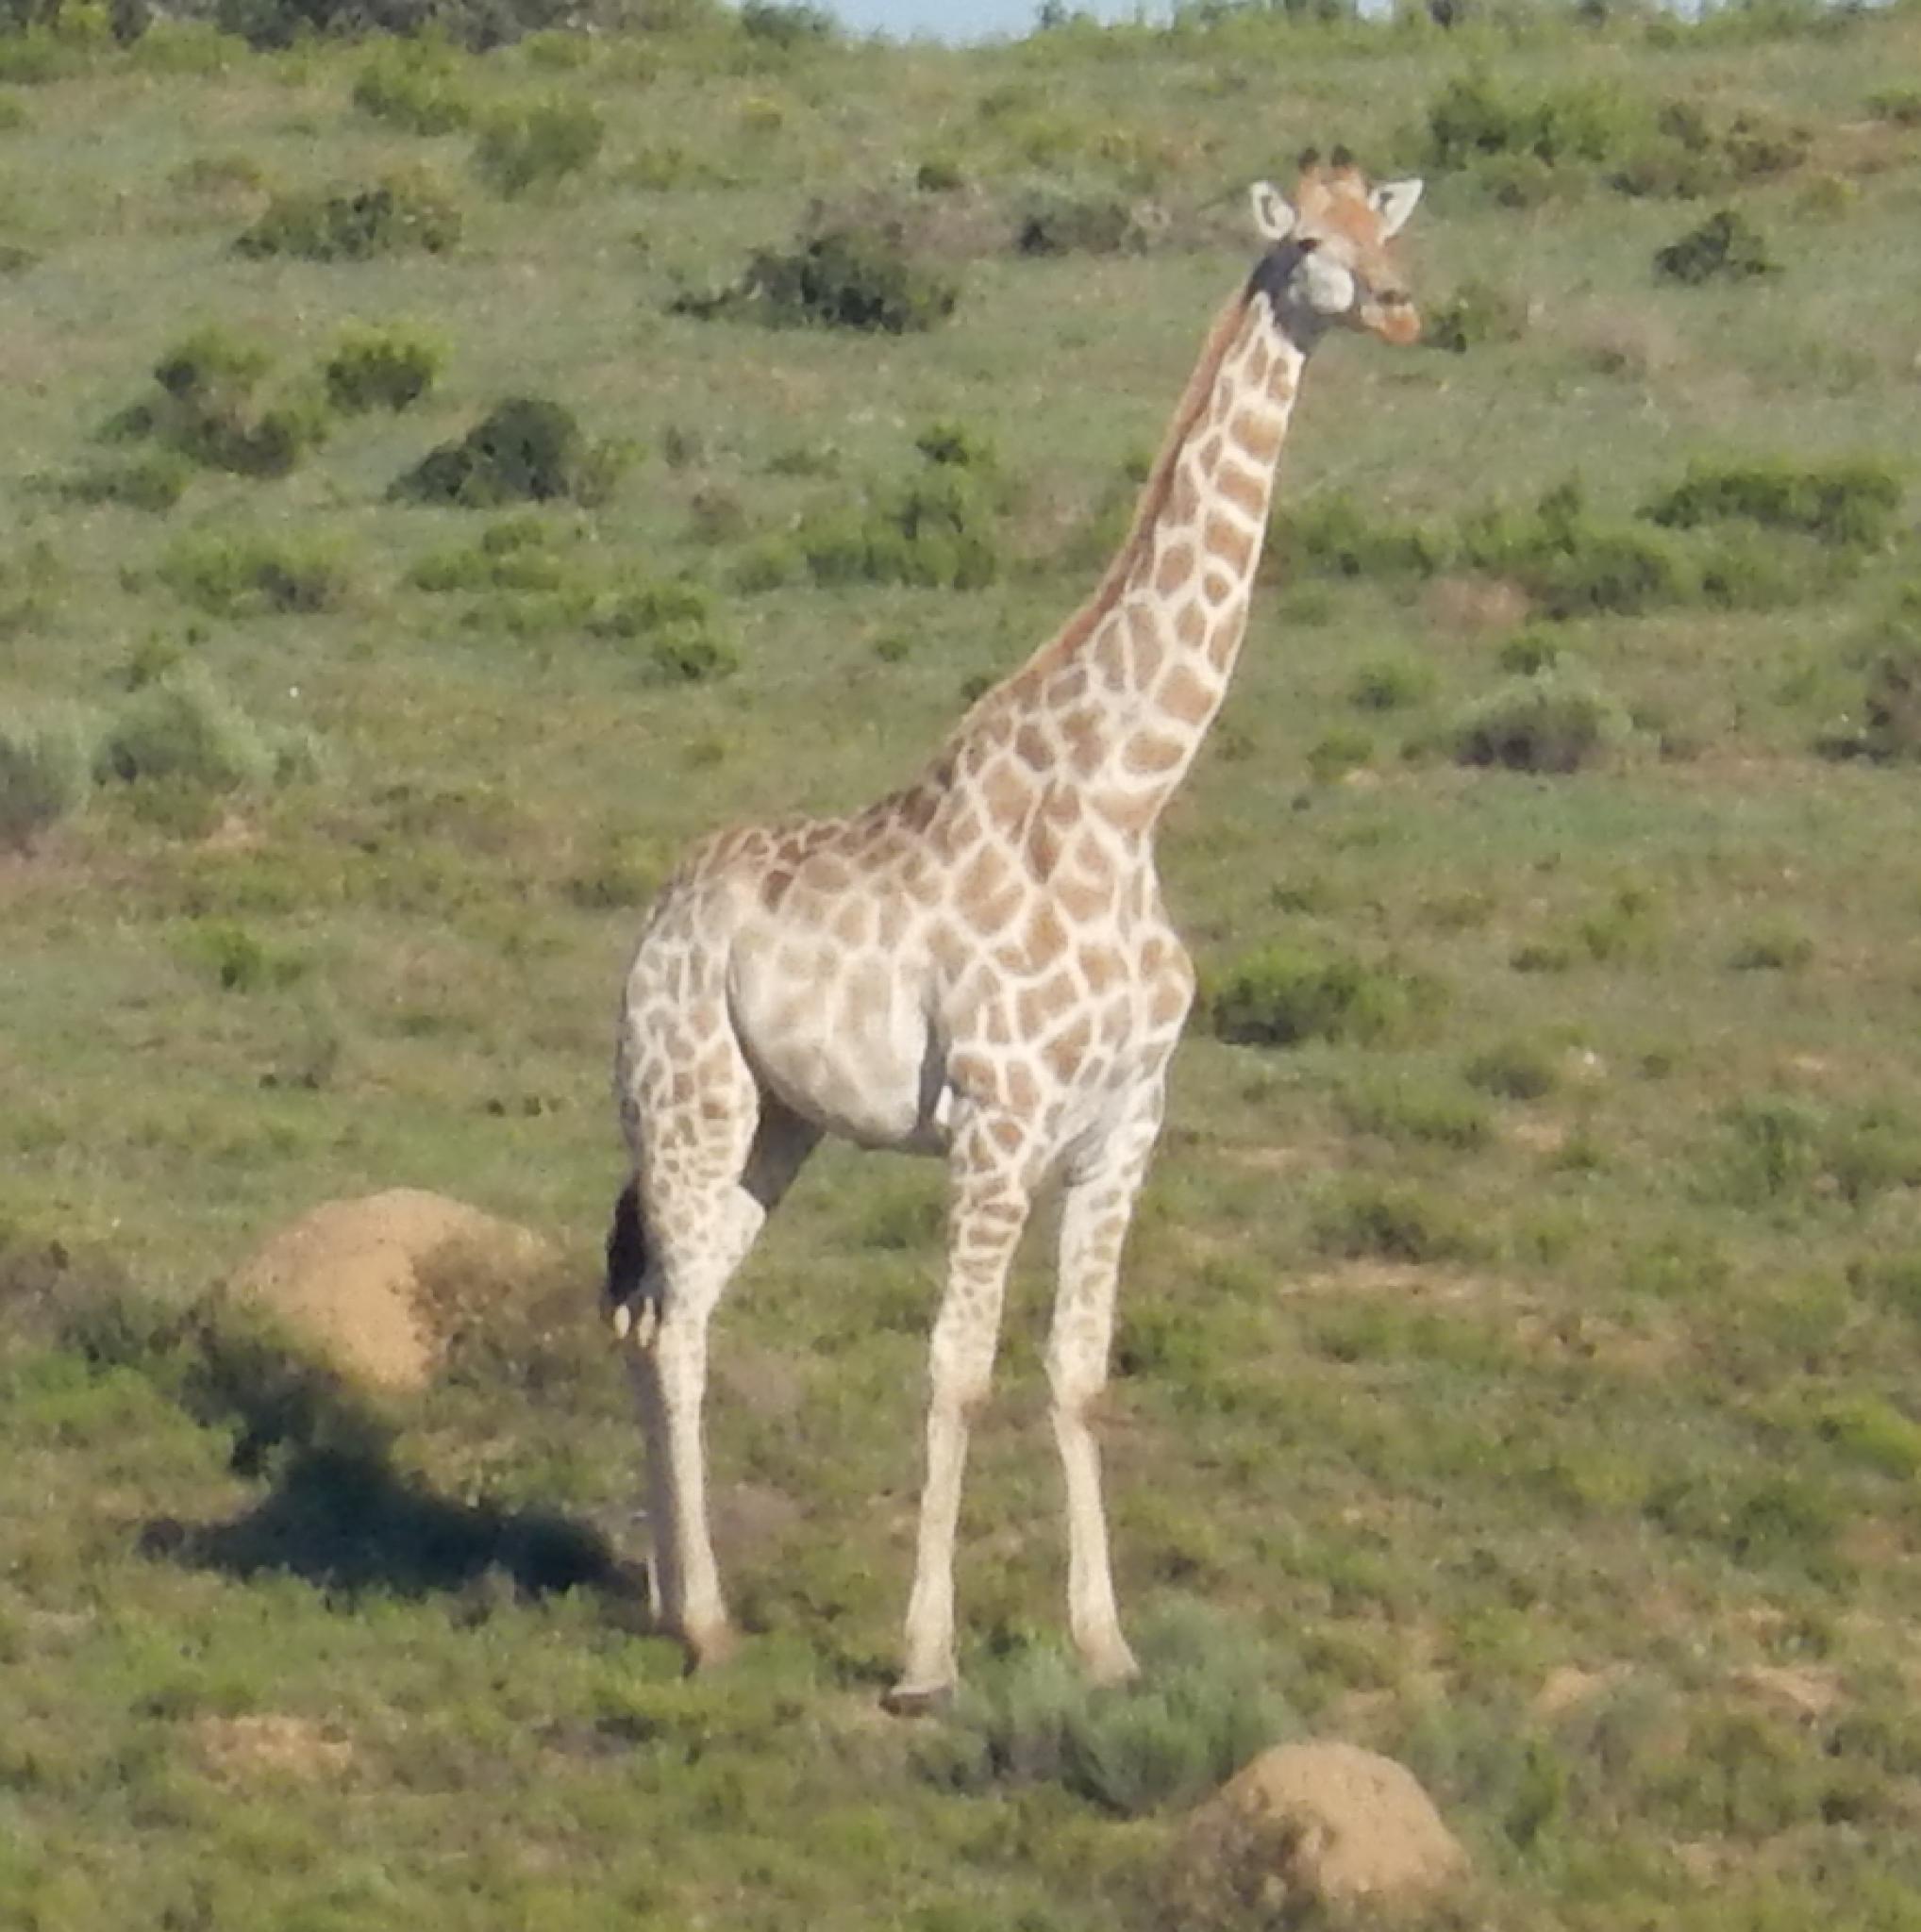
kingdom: Animalia
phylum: Chordata
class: Mammalia
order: Artiodactyla
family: Giraffidae
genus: Giraffa
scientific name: Giraffa giraffa
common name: Southern giraffe
